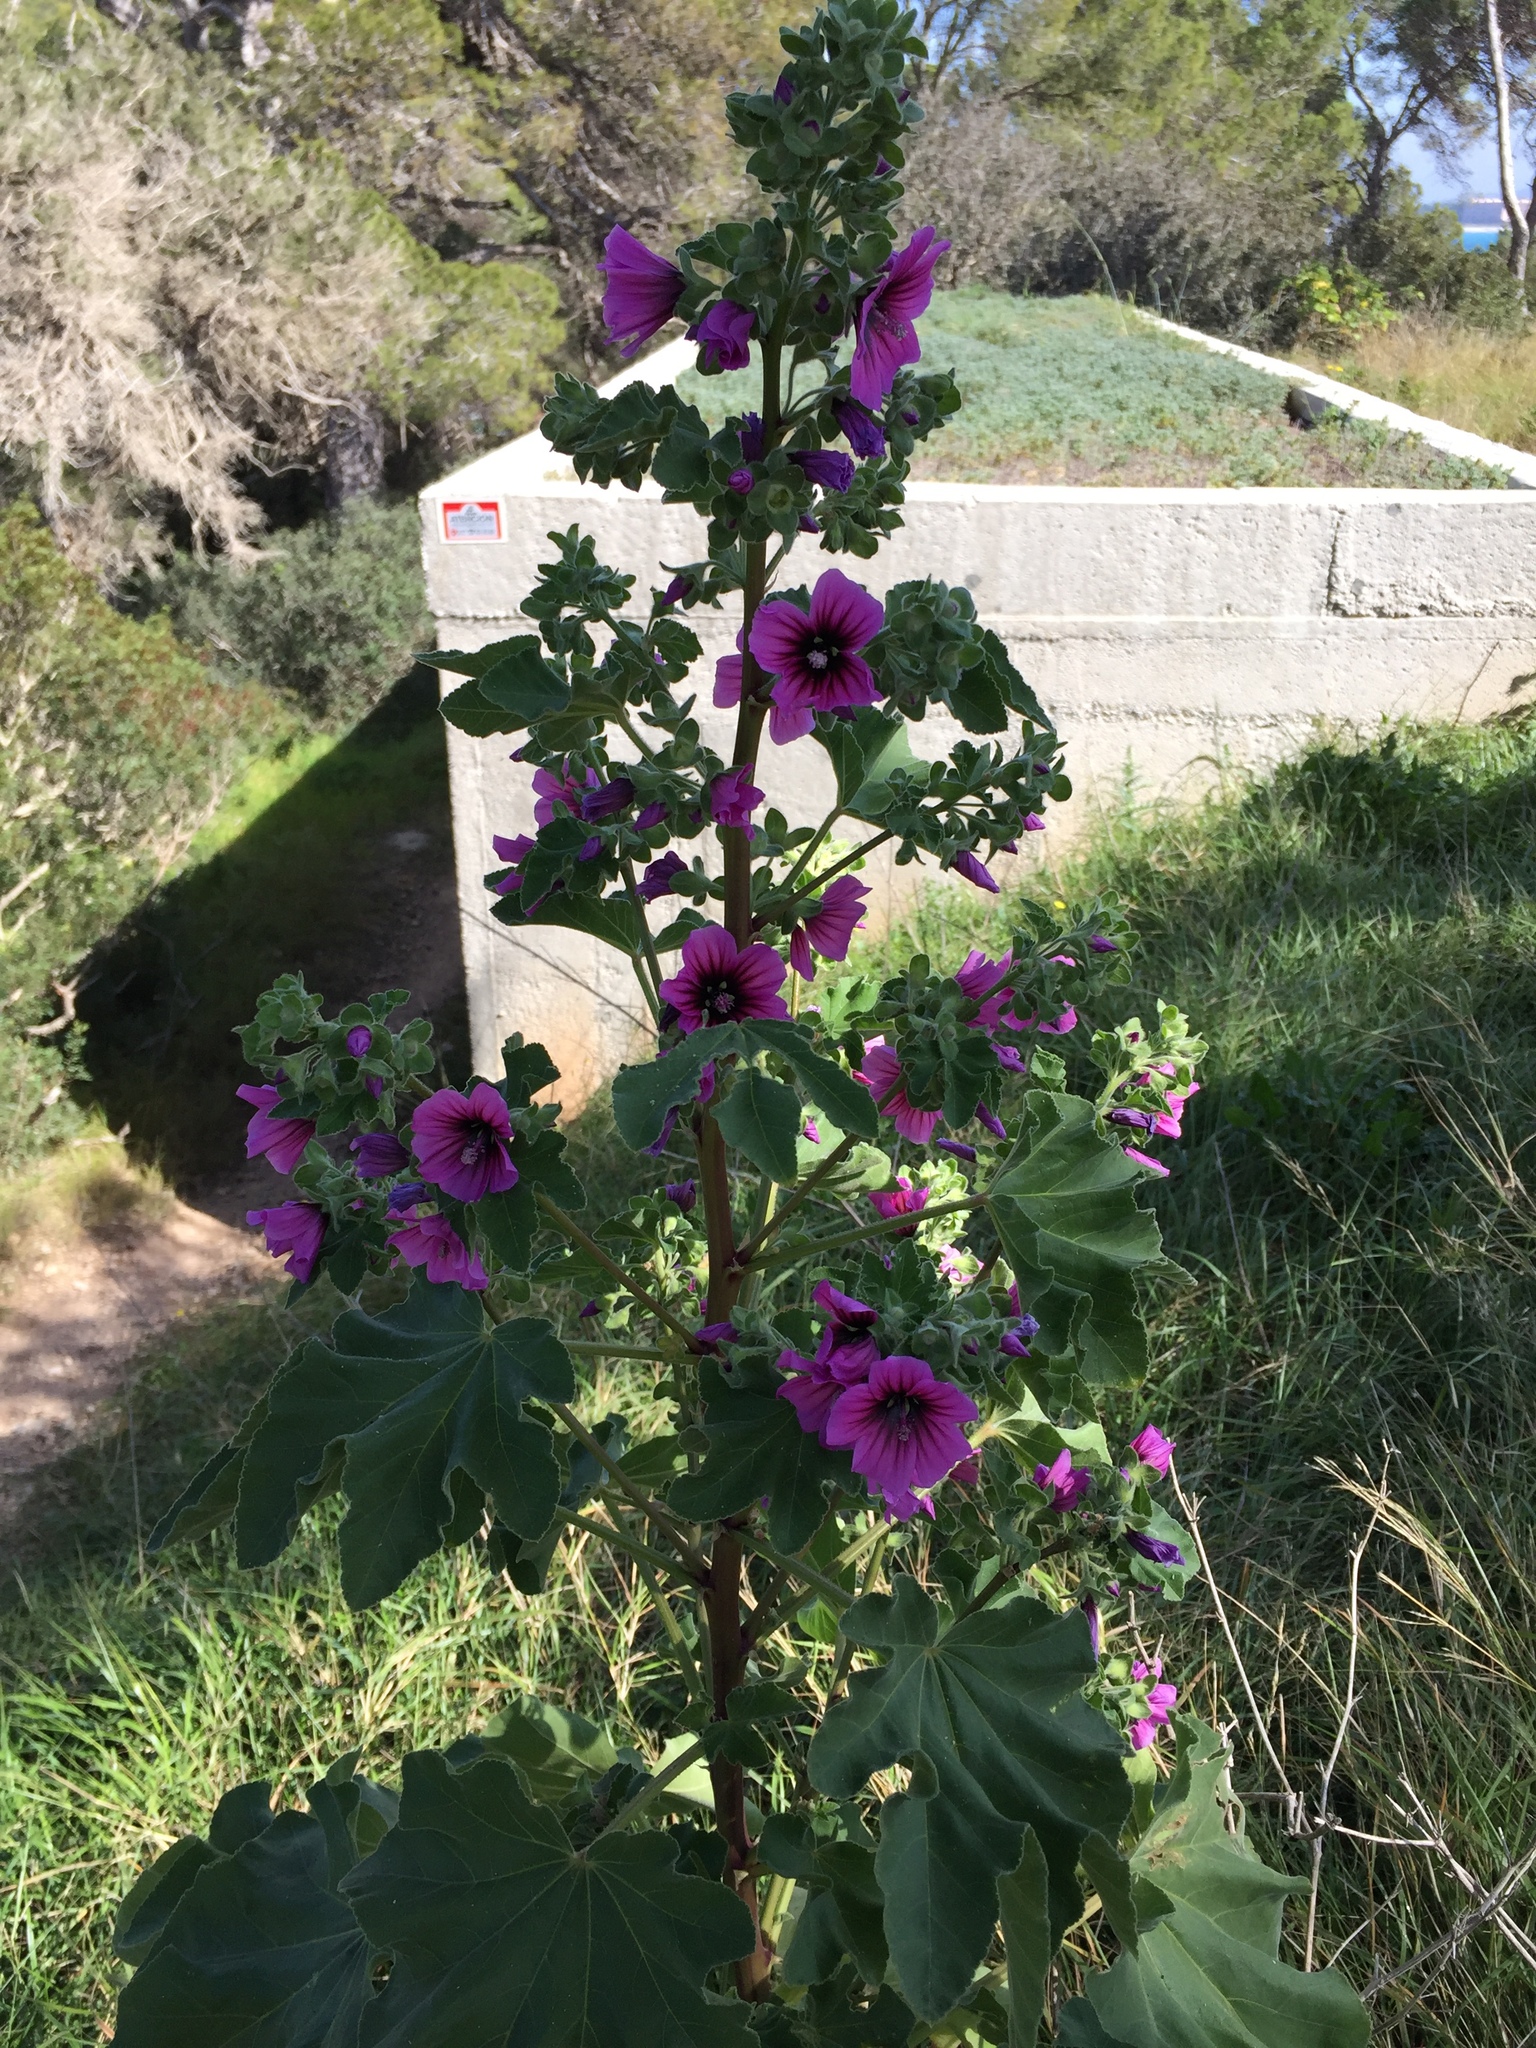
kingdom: Plantae
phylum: Tracheophyta
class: Magnoliopsida
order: Malvales
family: Malvaceae
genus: Malva
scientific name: Malva arborea
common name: Tree mallow
